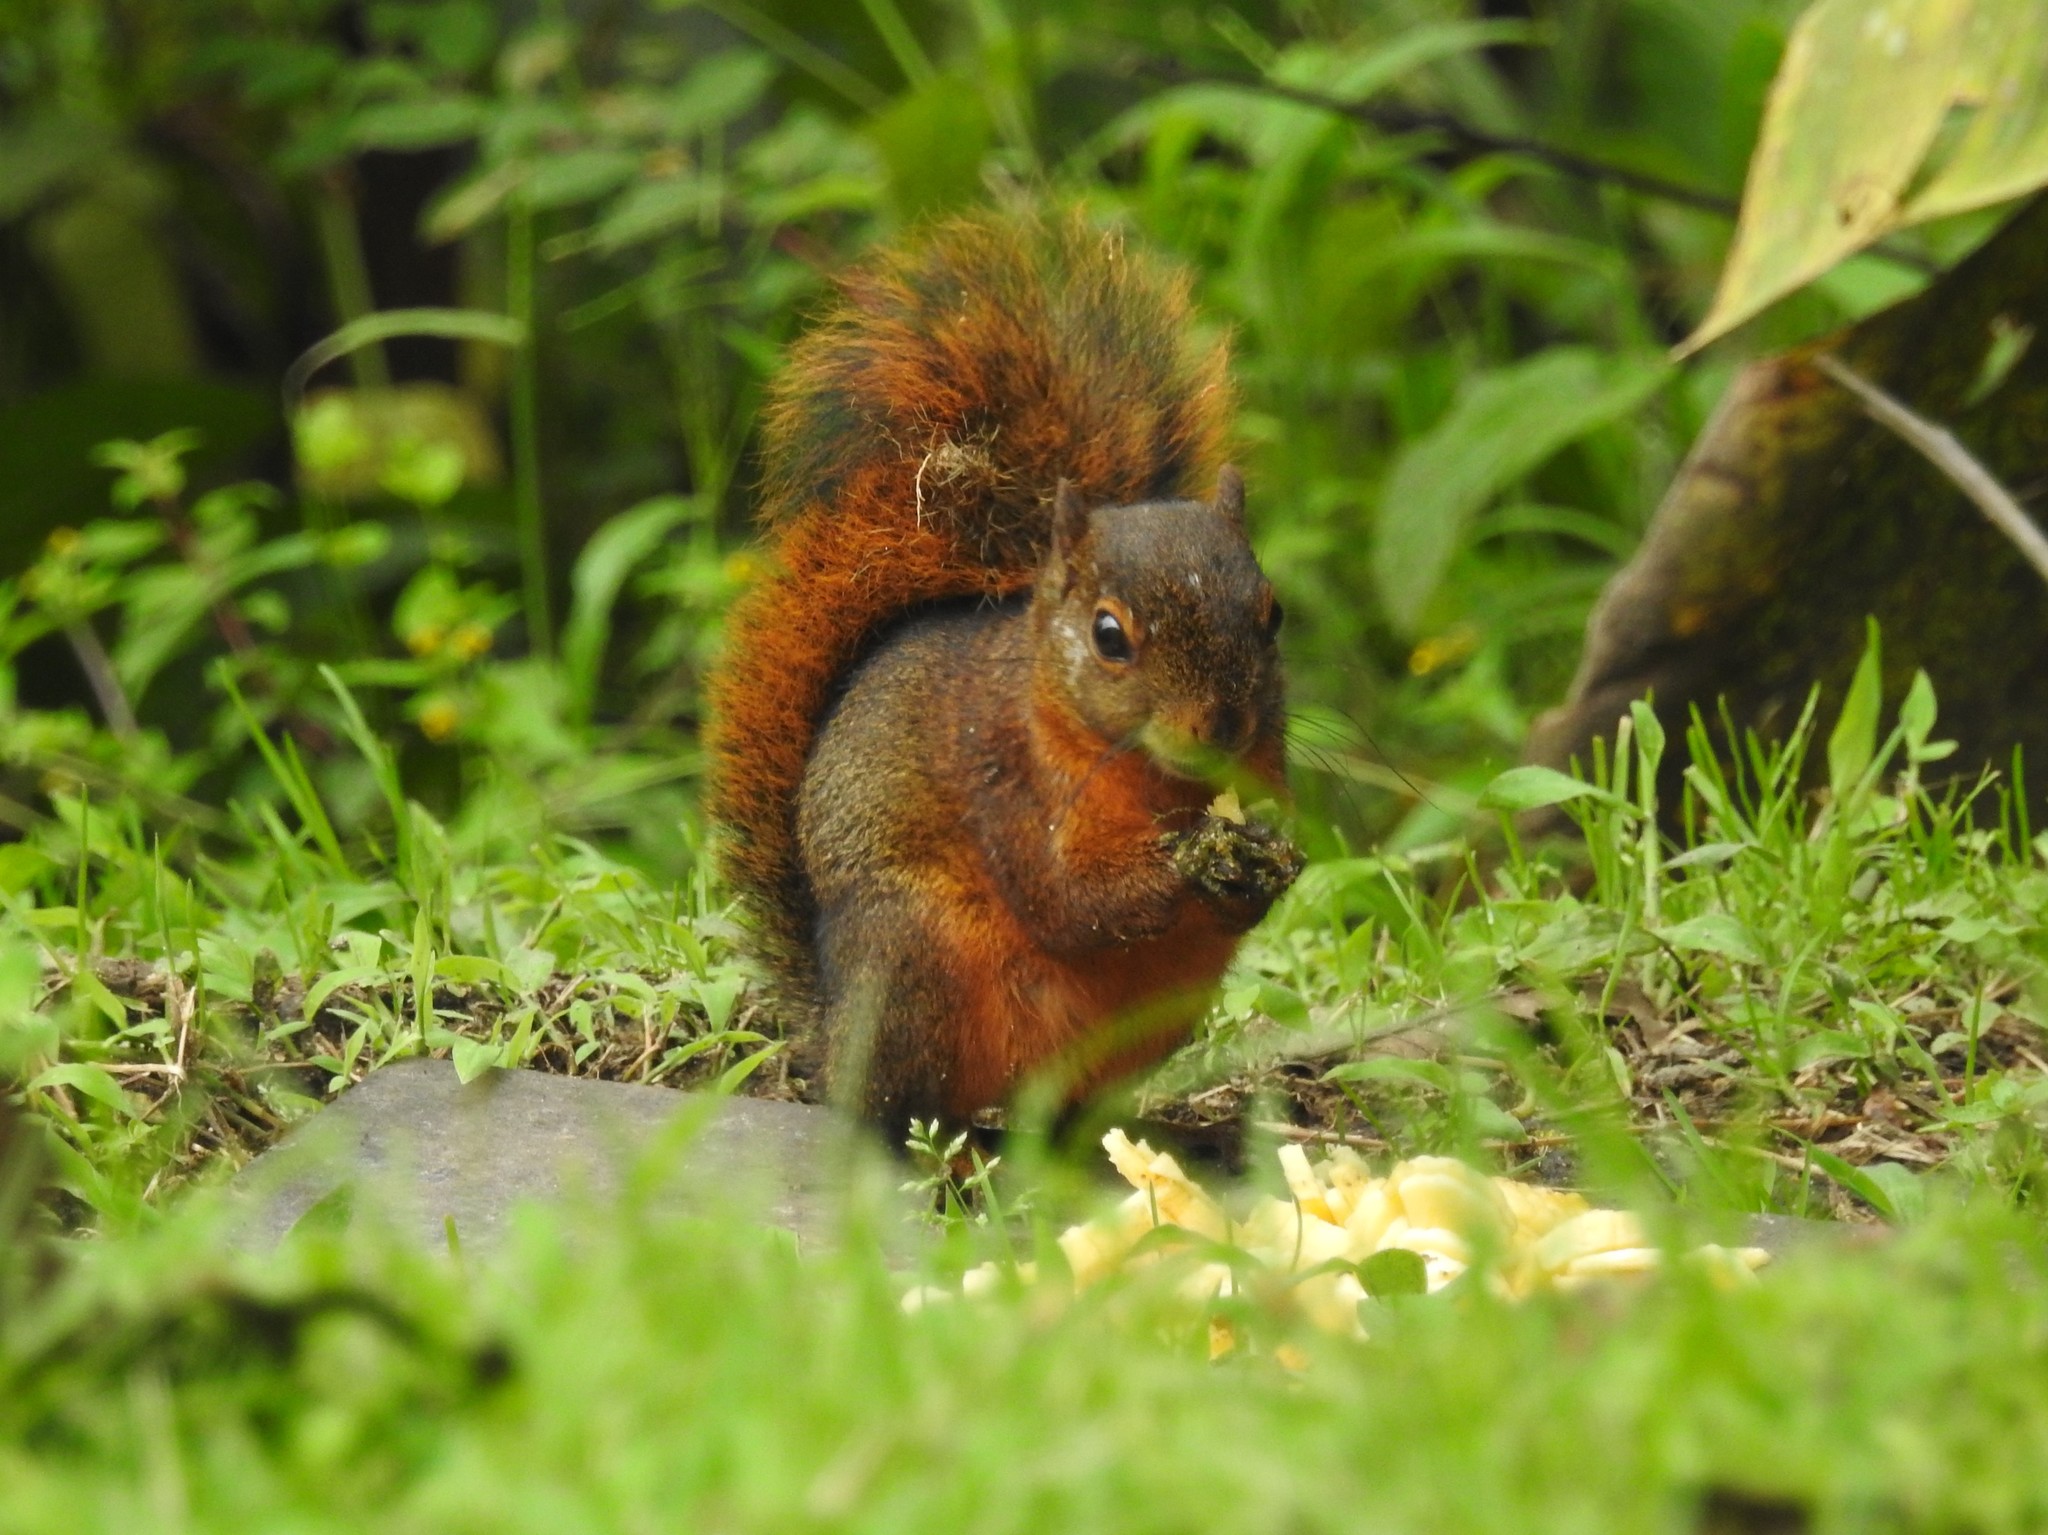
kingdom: Animalia
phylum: Chordata
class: Mammalia
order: Rodentia
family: Sciuridae
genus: Sciurus
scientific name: Sciurus granatensis
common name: Red-tailed squirrel
